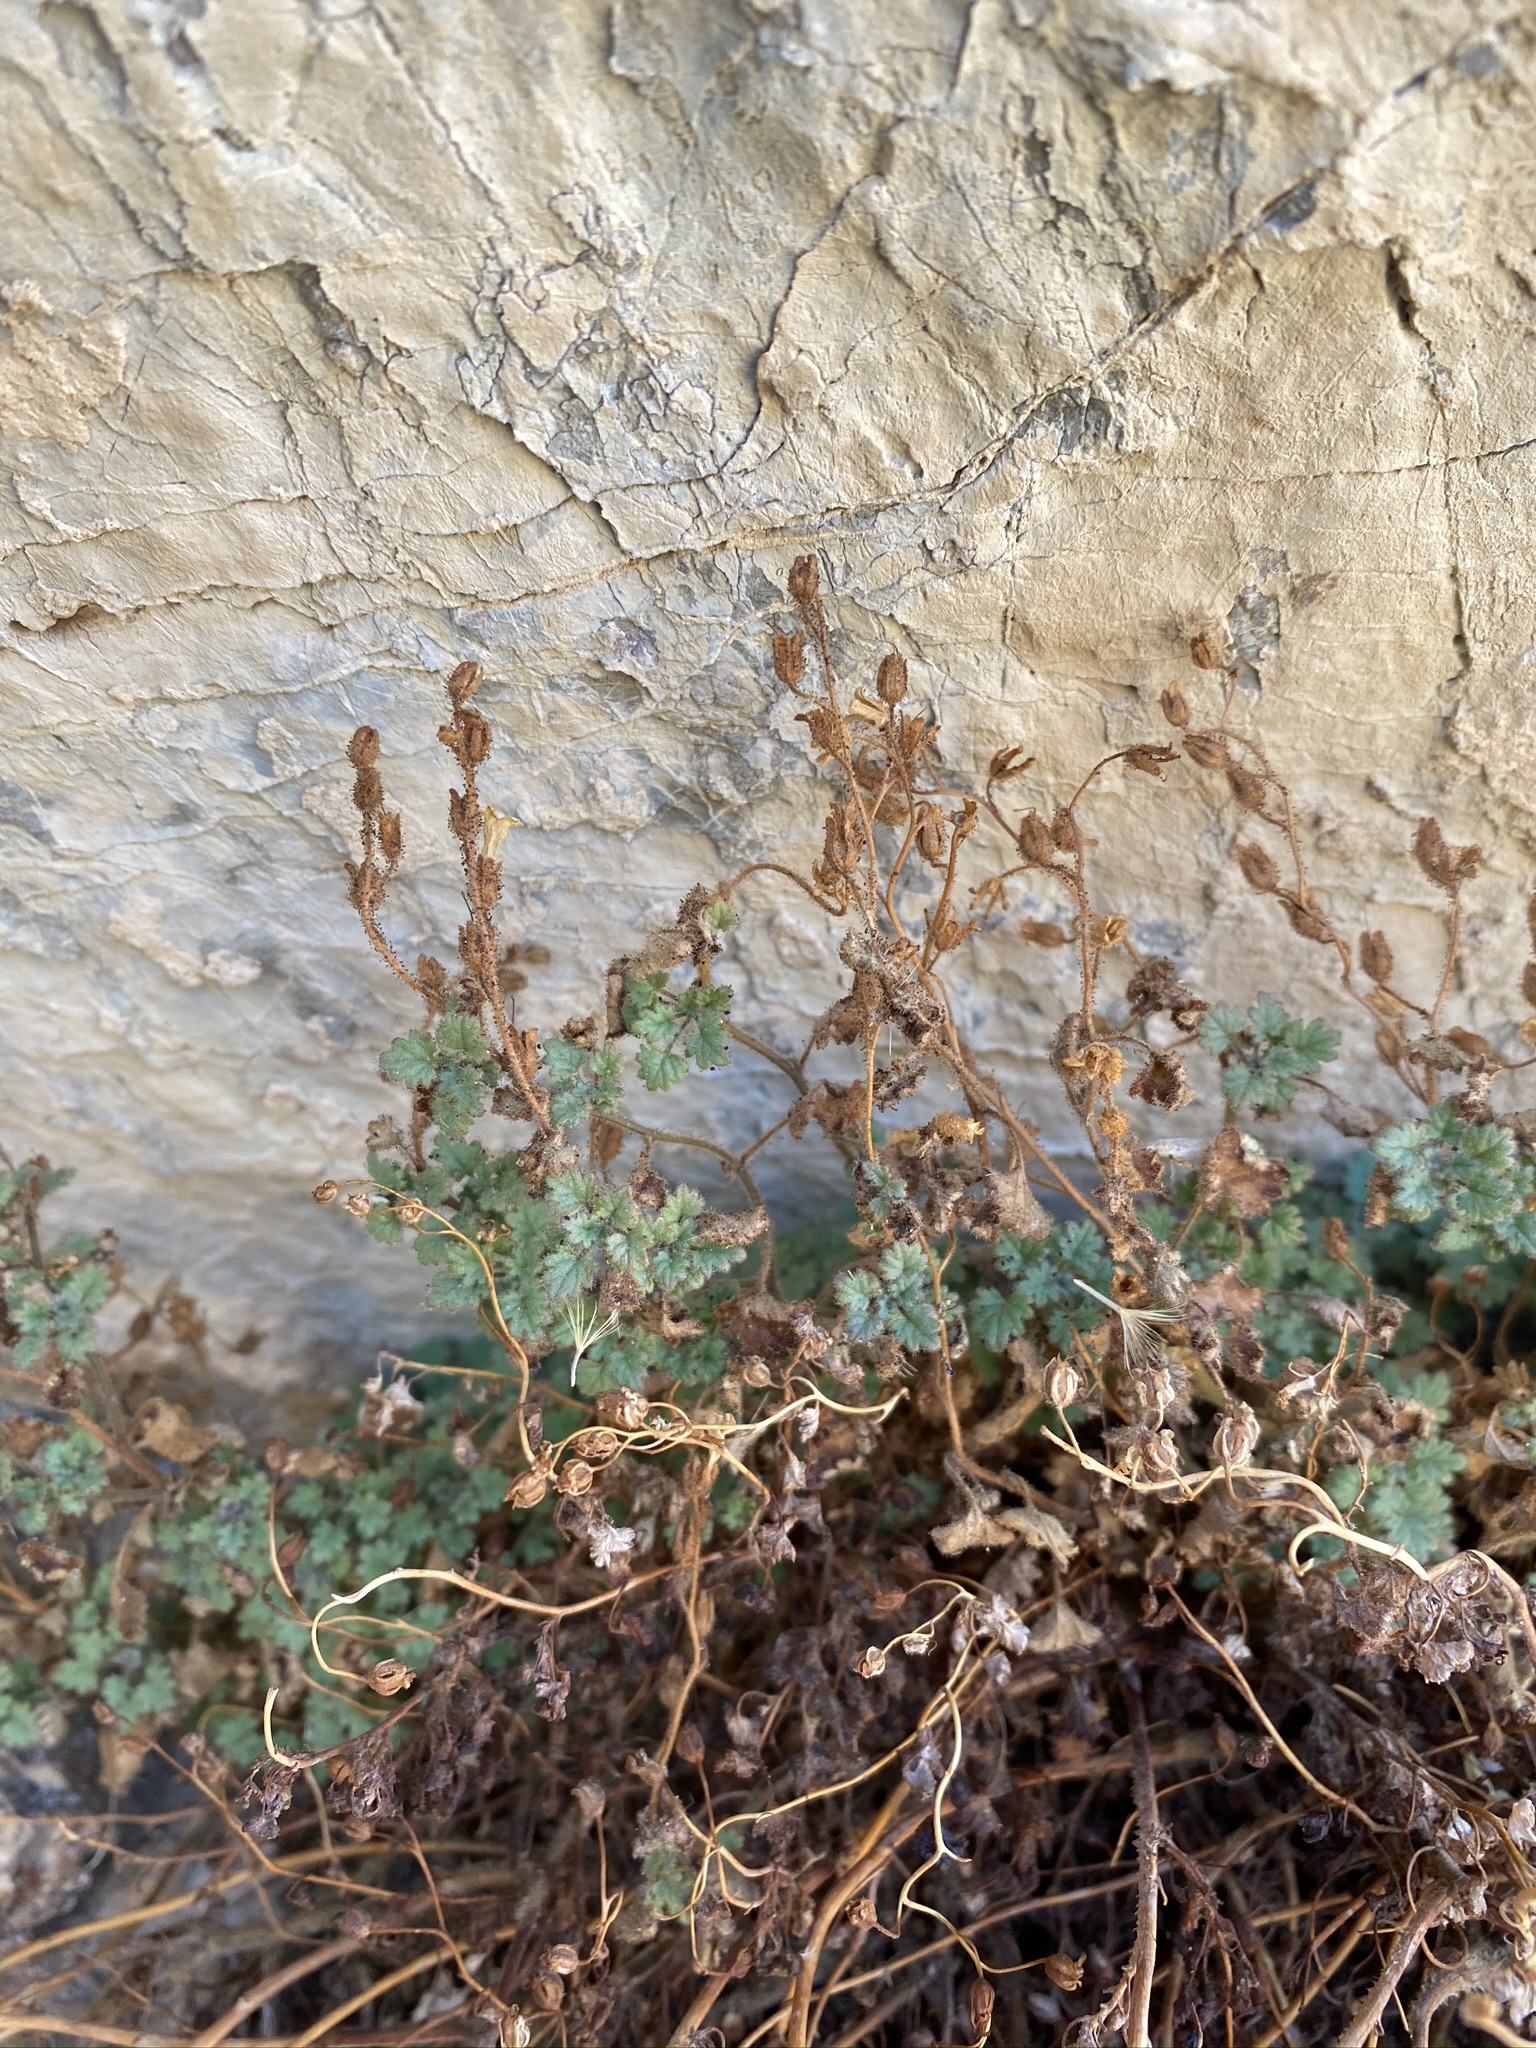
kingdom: Plantae
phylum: Tracheophyta
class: Magnoliopsida
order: Boraginales
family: Hydrophyllaceae
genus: Phacelia
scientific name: Phacelia perityloides
